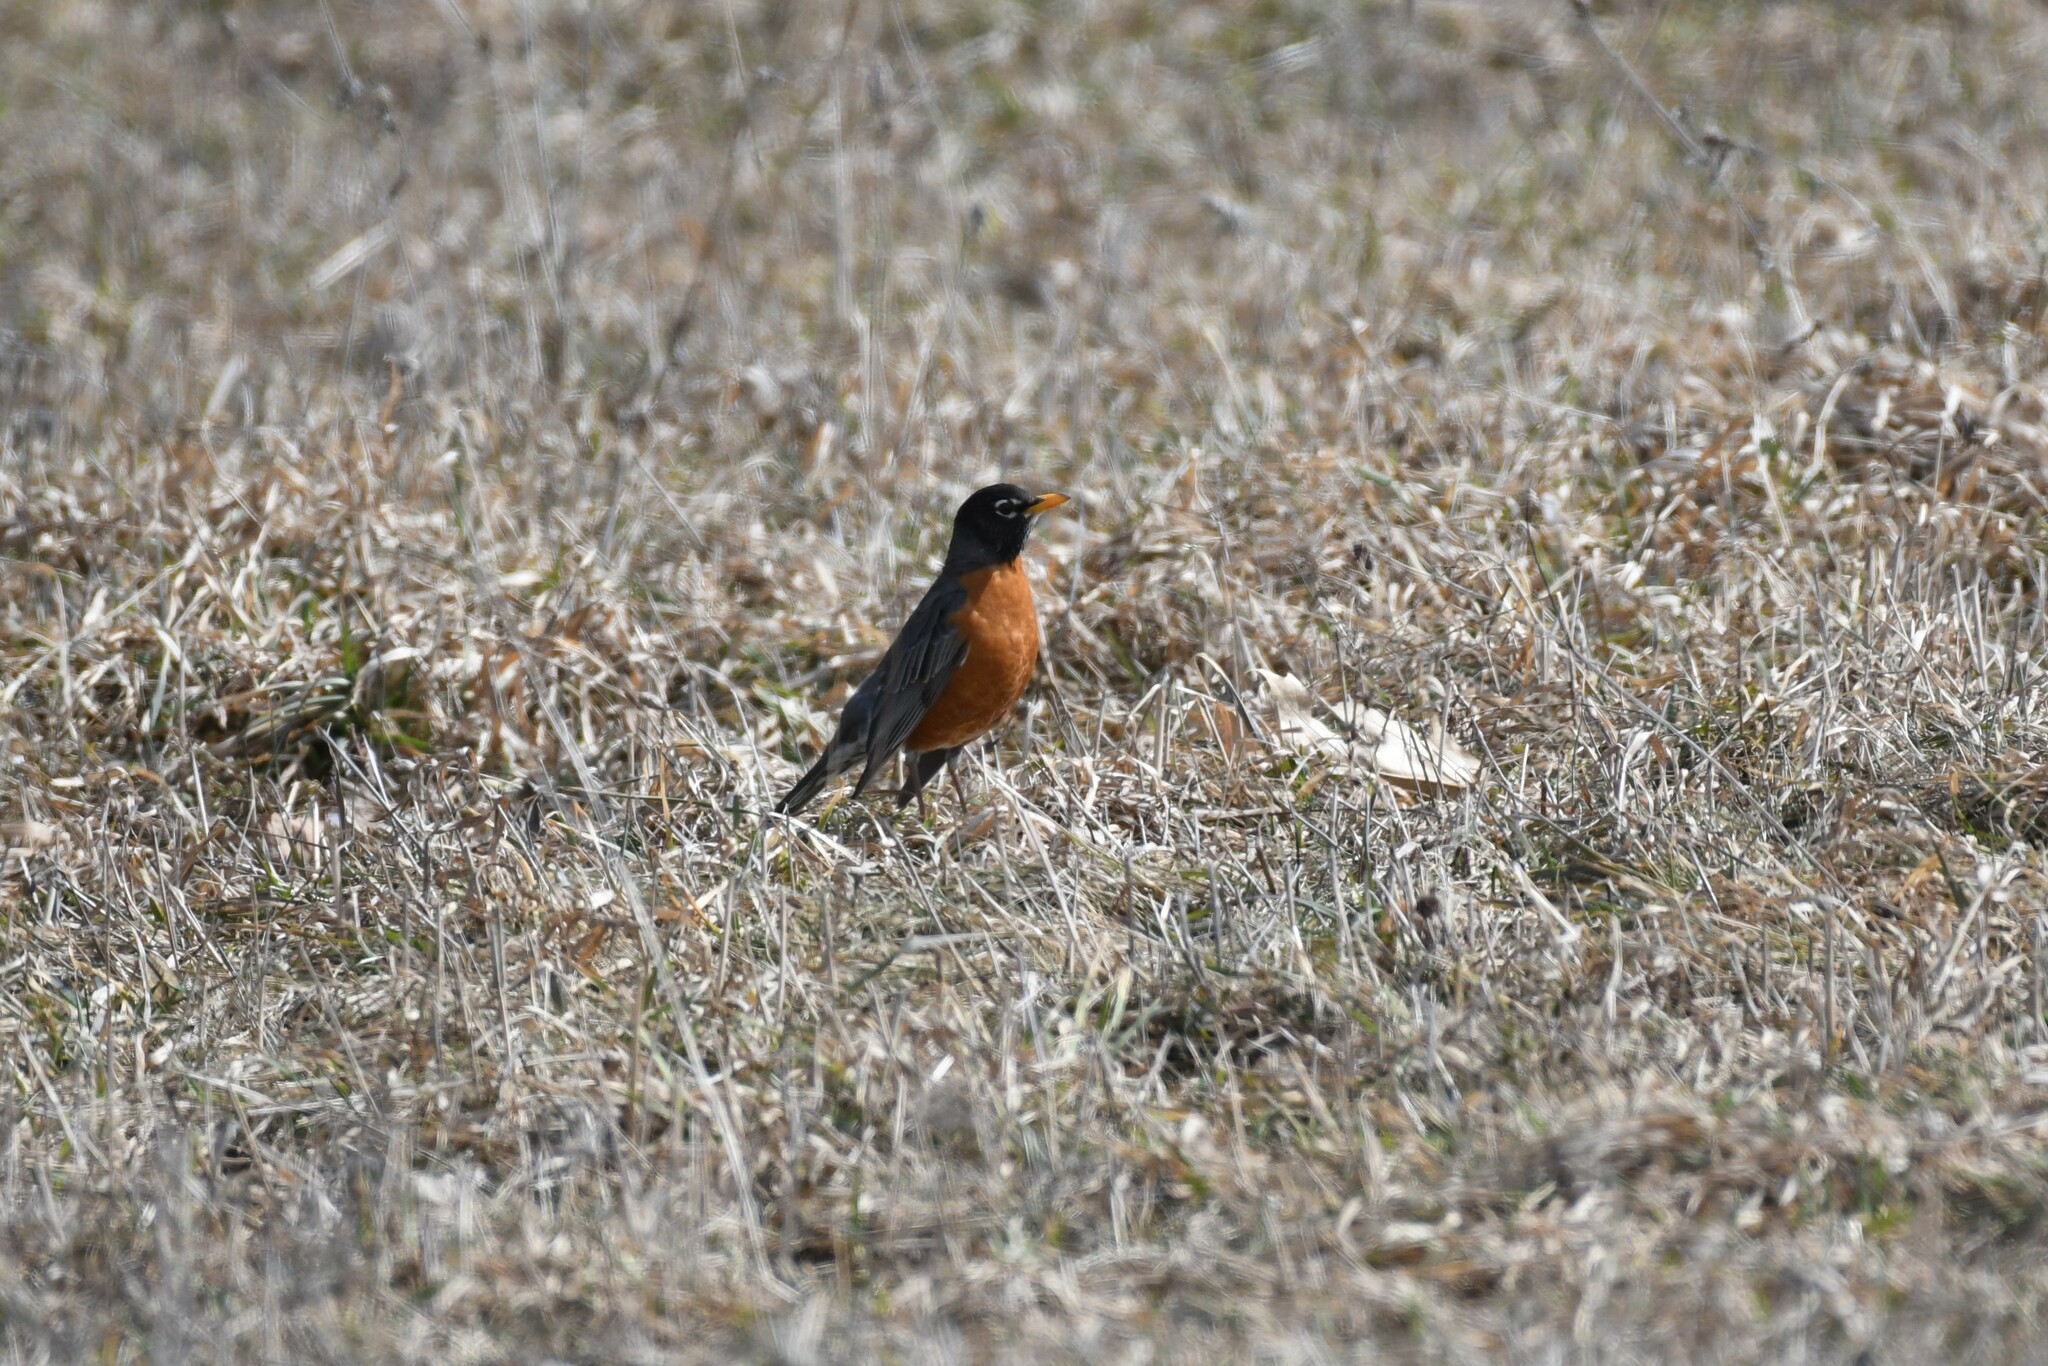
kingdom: Animalia
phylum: Chordata
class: Aves
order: Passeriformes
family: Turdidae
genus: Turdus
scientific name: Turdus migratorius
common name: American robin
